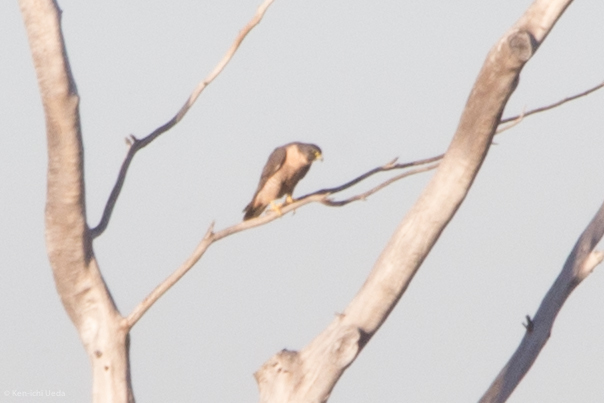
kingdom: Animalia
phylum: Chordata
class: Aves
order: Falconiformes
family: Falconidae
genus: Falco
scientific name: Falco peregrinus
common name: Peregrine falcon
